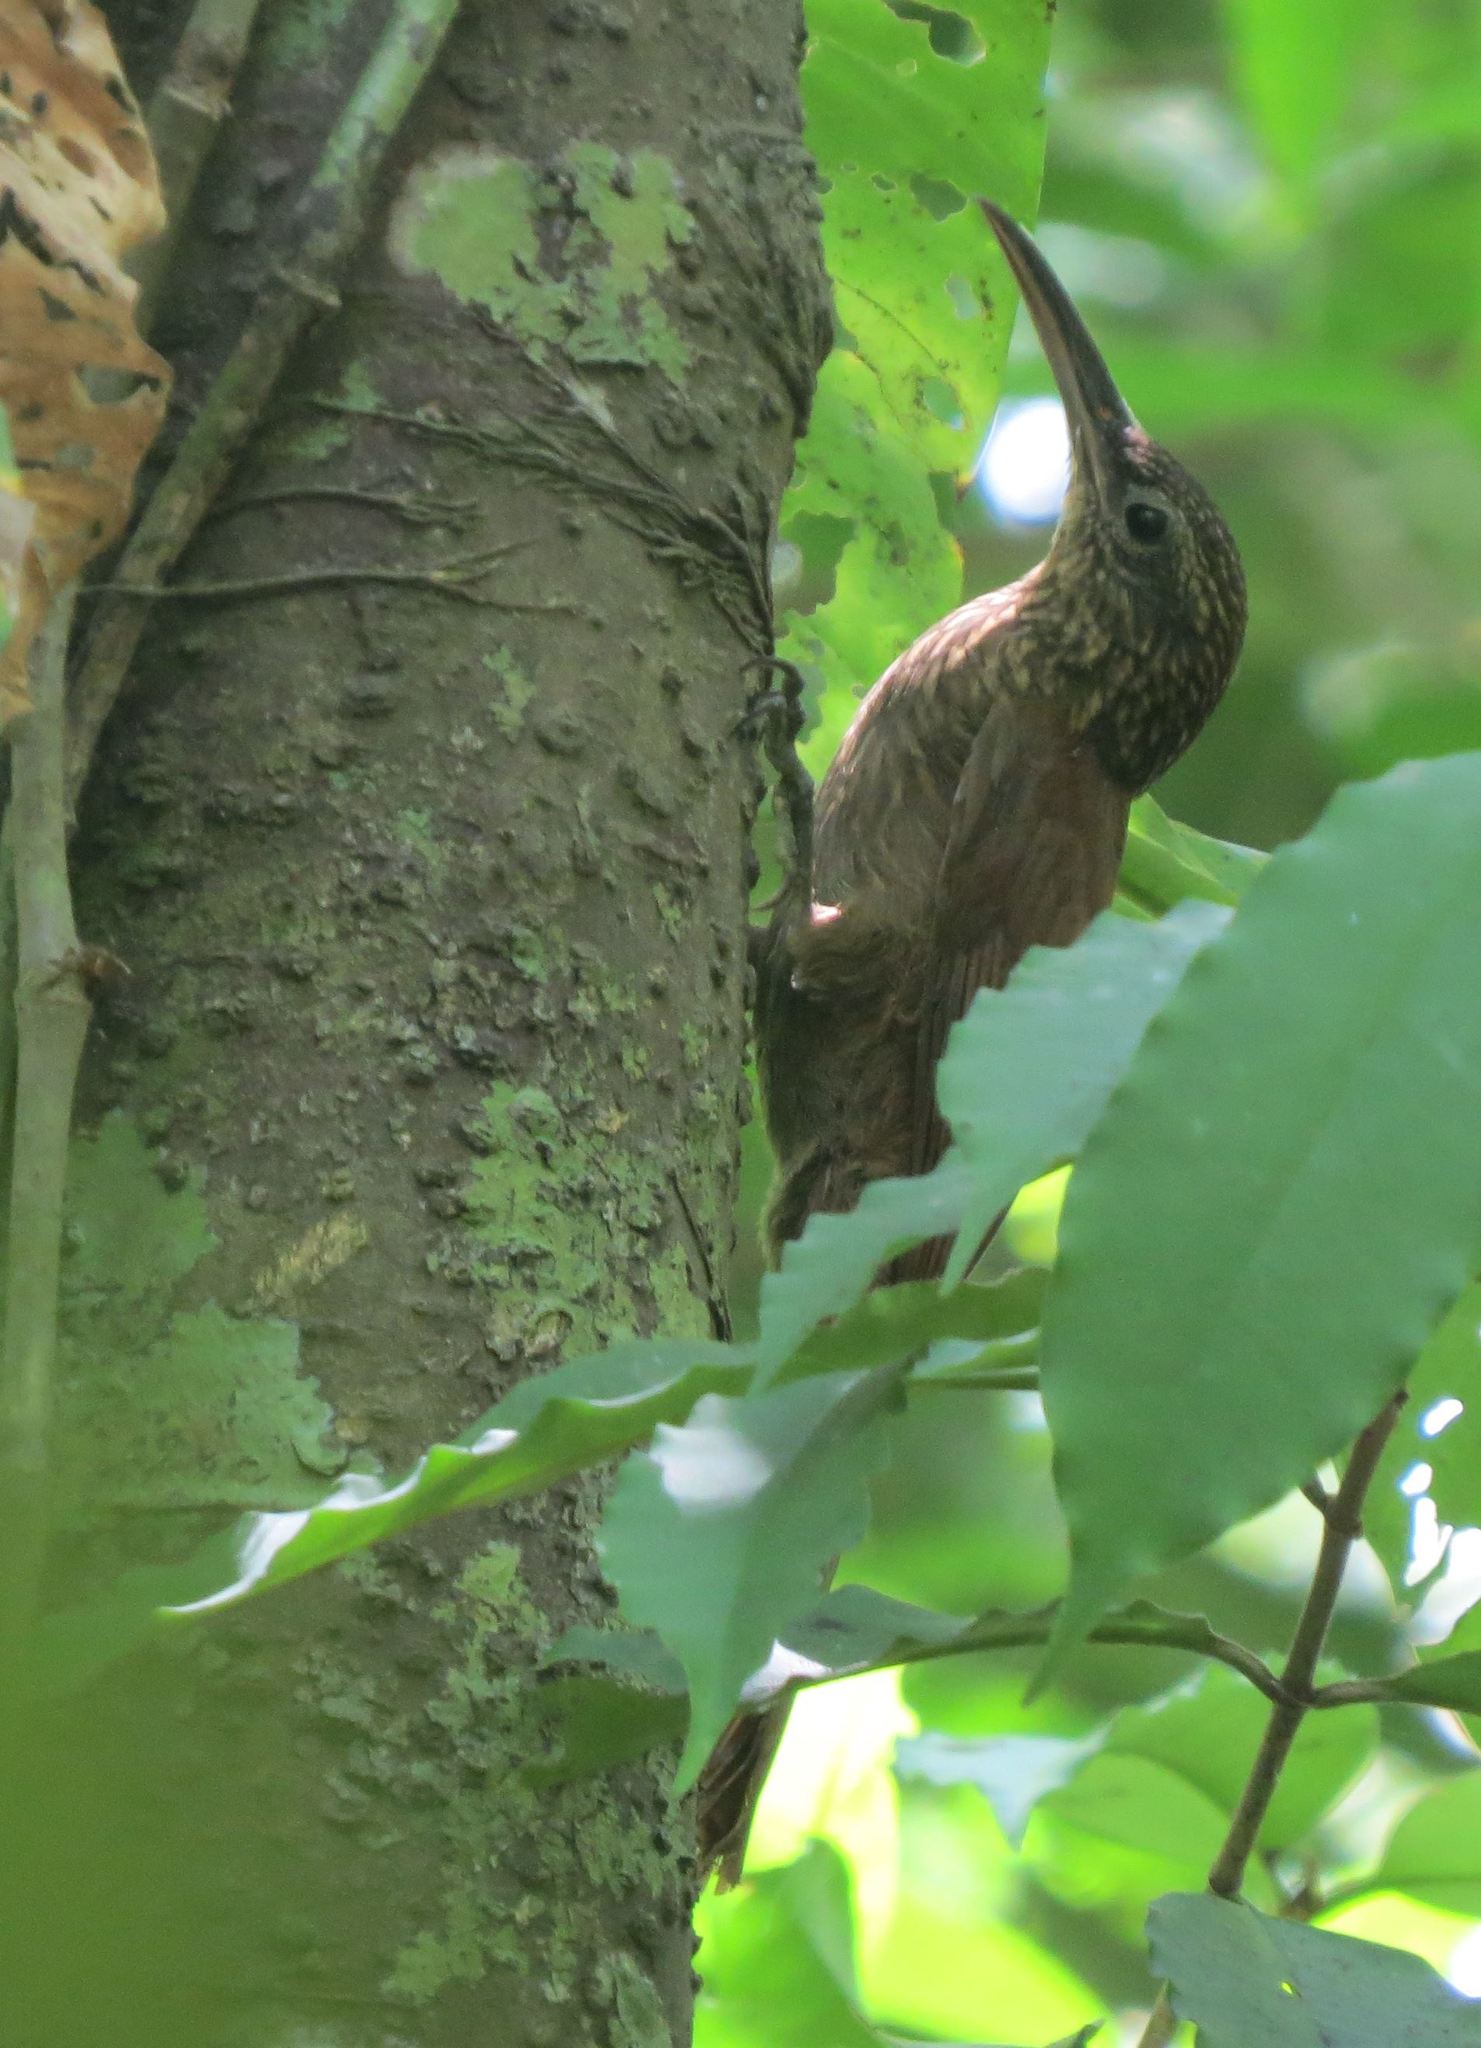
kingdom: Animalia
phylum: Chordata
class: Aves
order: Passeriformes
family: Furnariidae
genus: Xiphorhynchus
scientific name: Xiphorhynchus susurrans
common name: Cocoa woodcreeper
